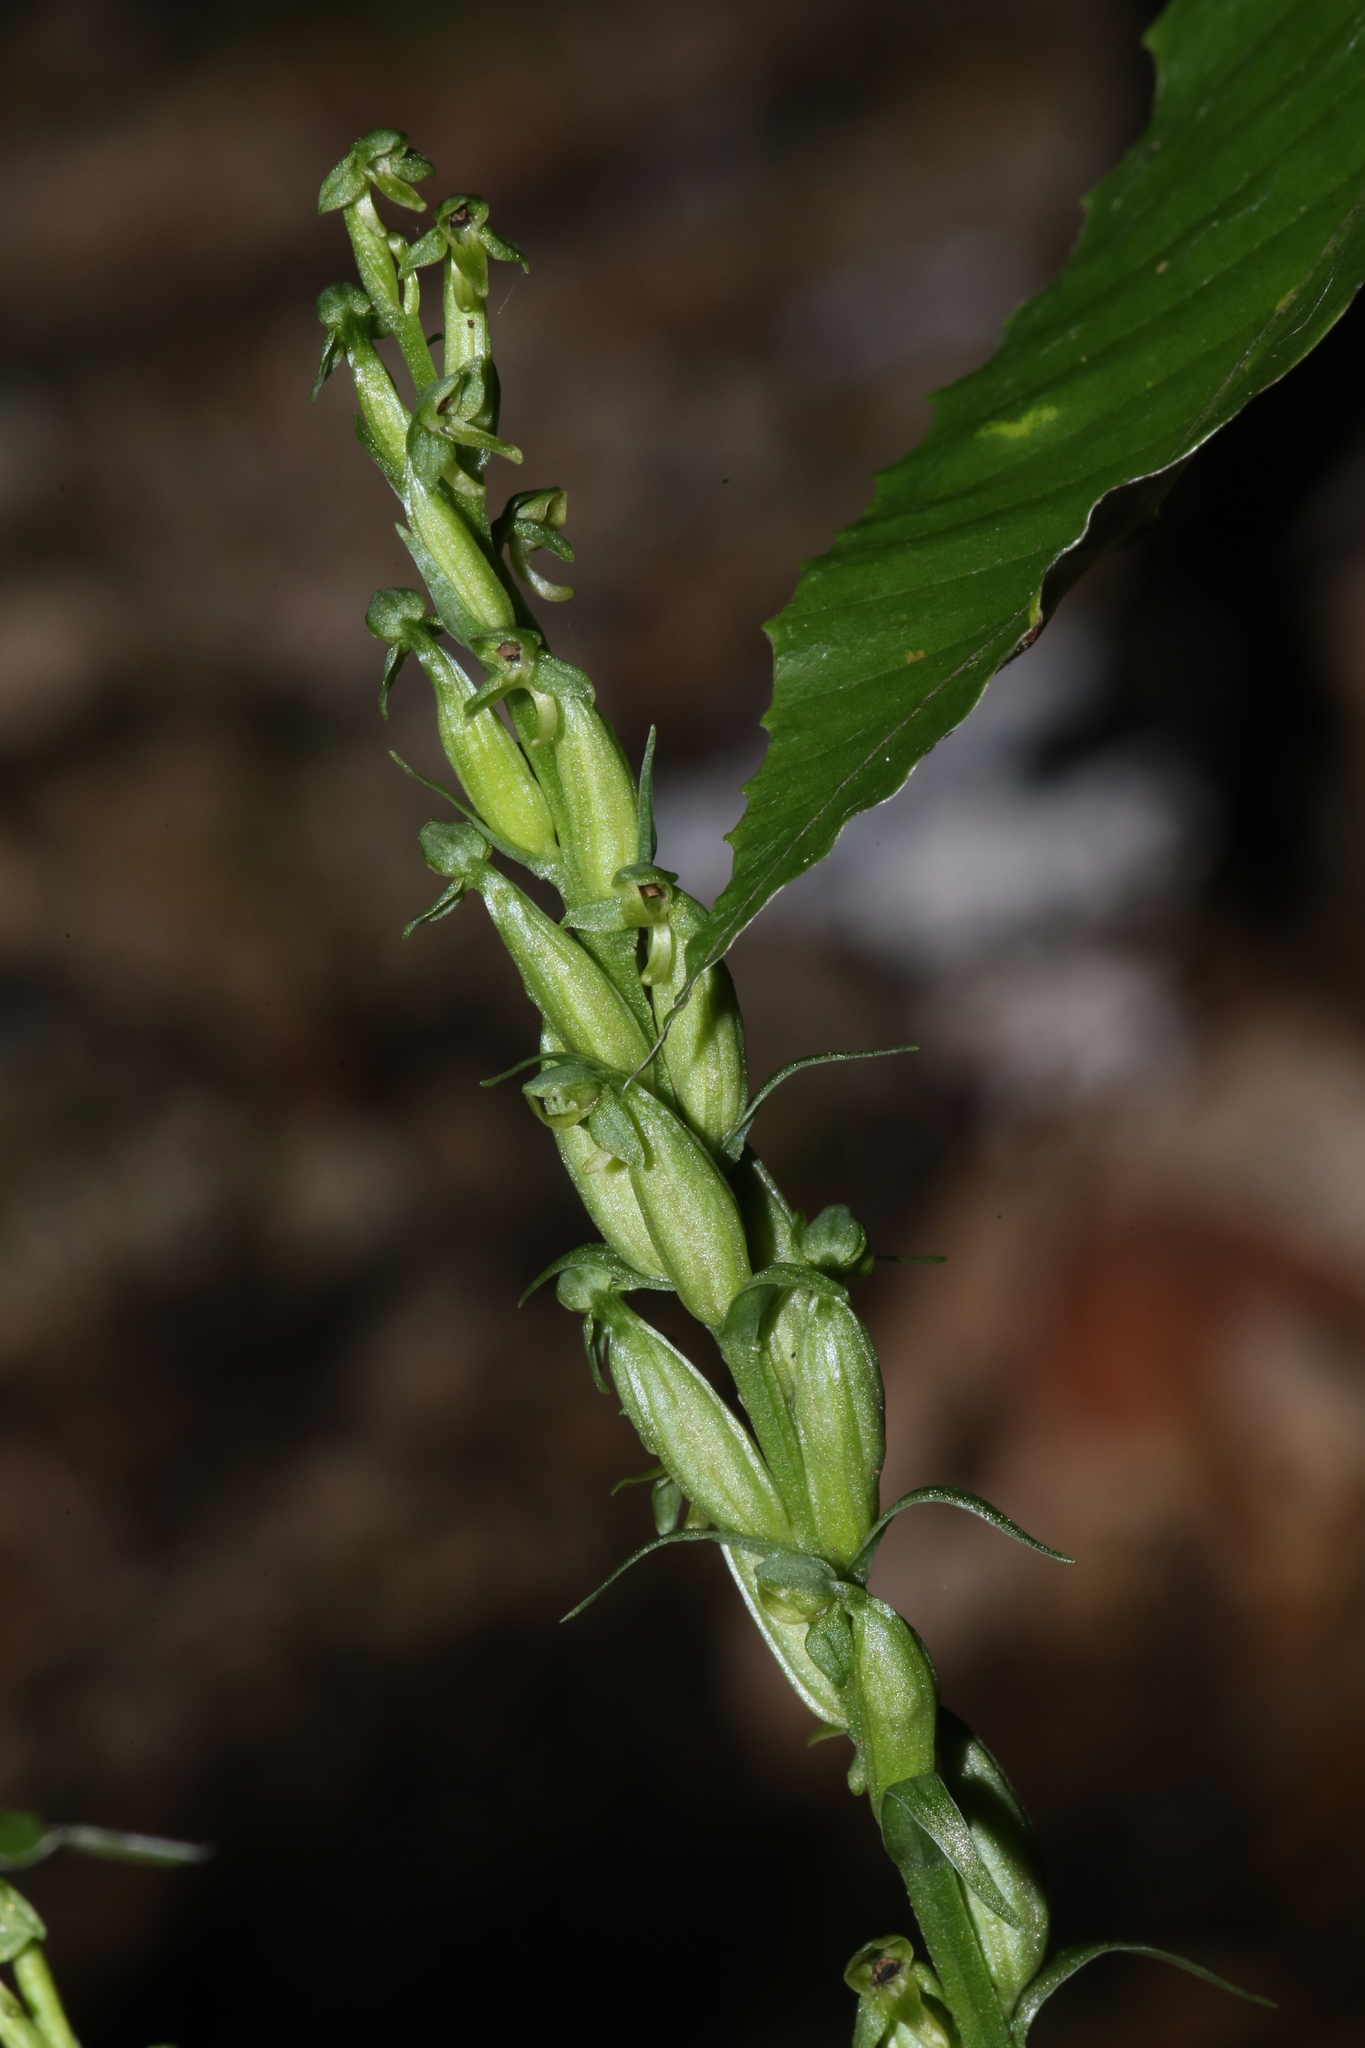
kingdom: Plantae
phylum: Tracheophyta
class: Liliopsida
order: Asparagales
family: Orchidaceae
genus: Platanthera
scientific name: Platanthera aquilonis
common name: Northern green orchid
